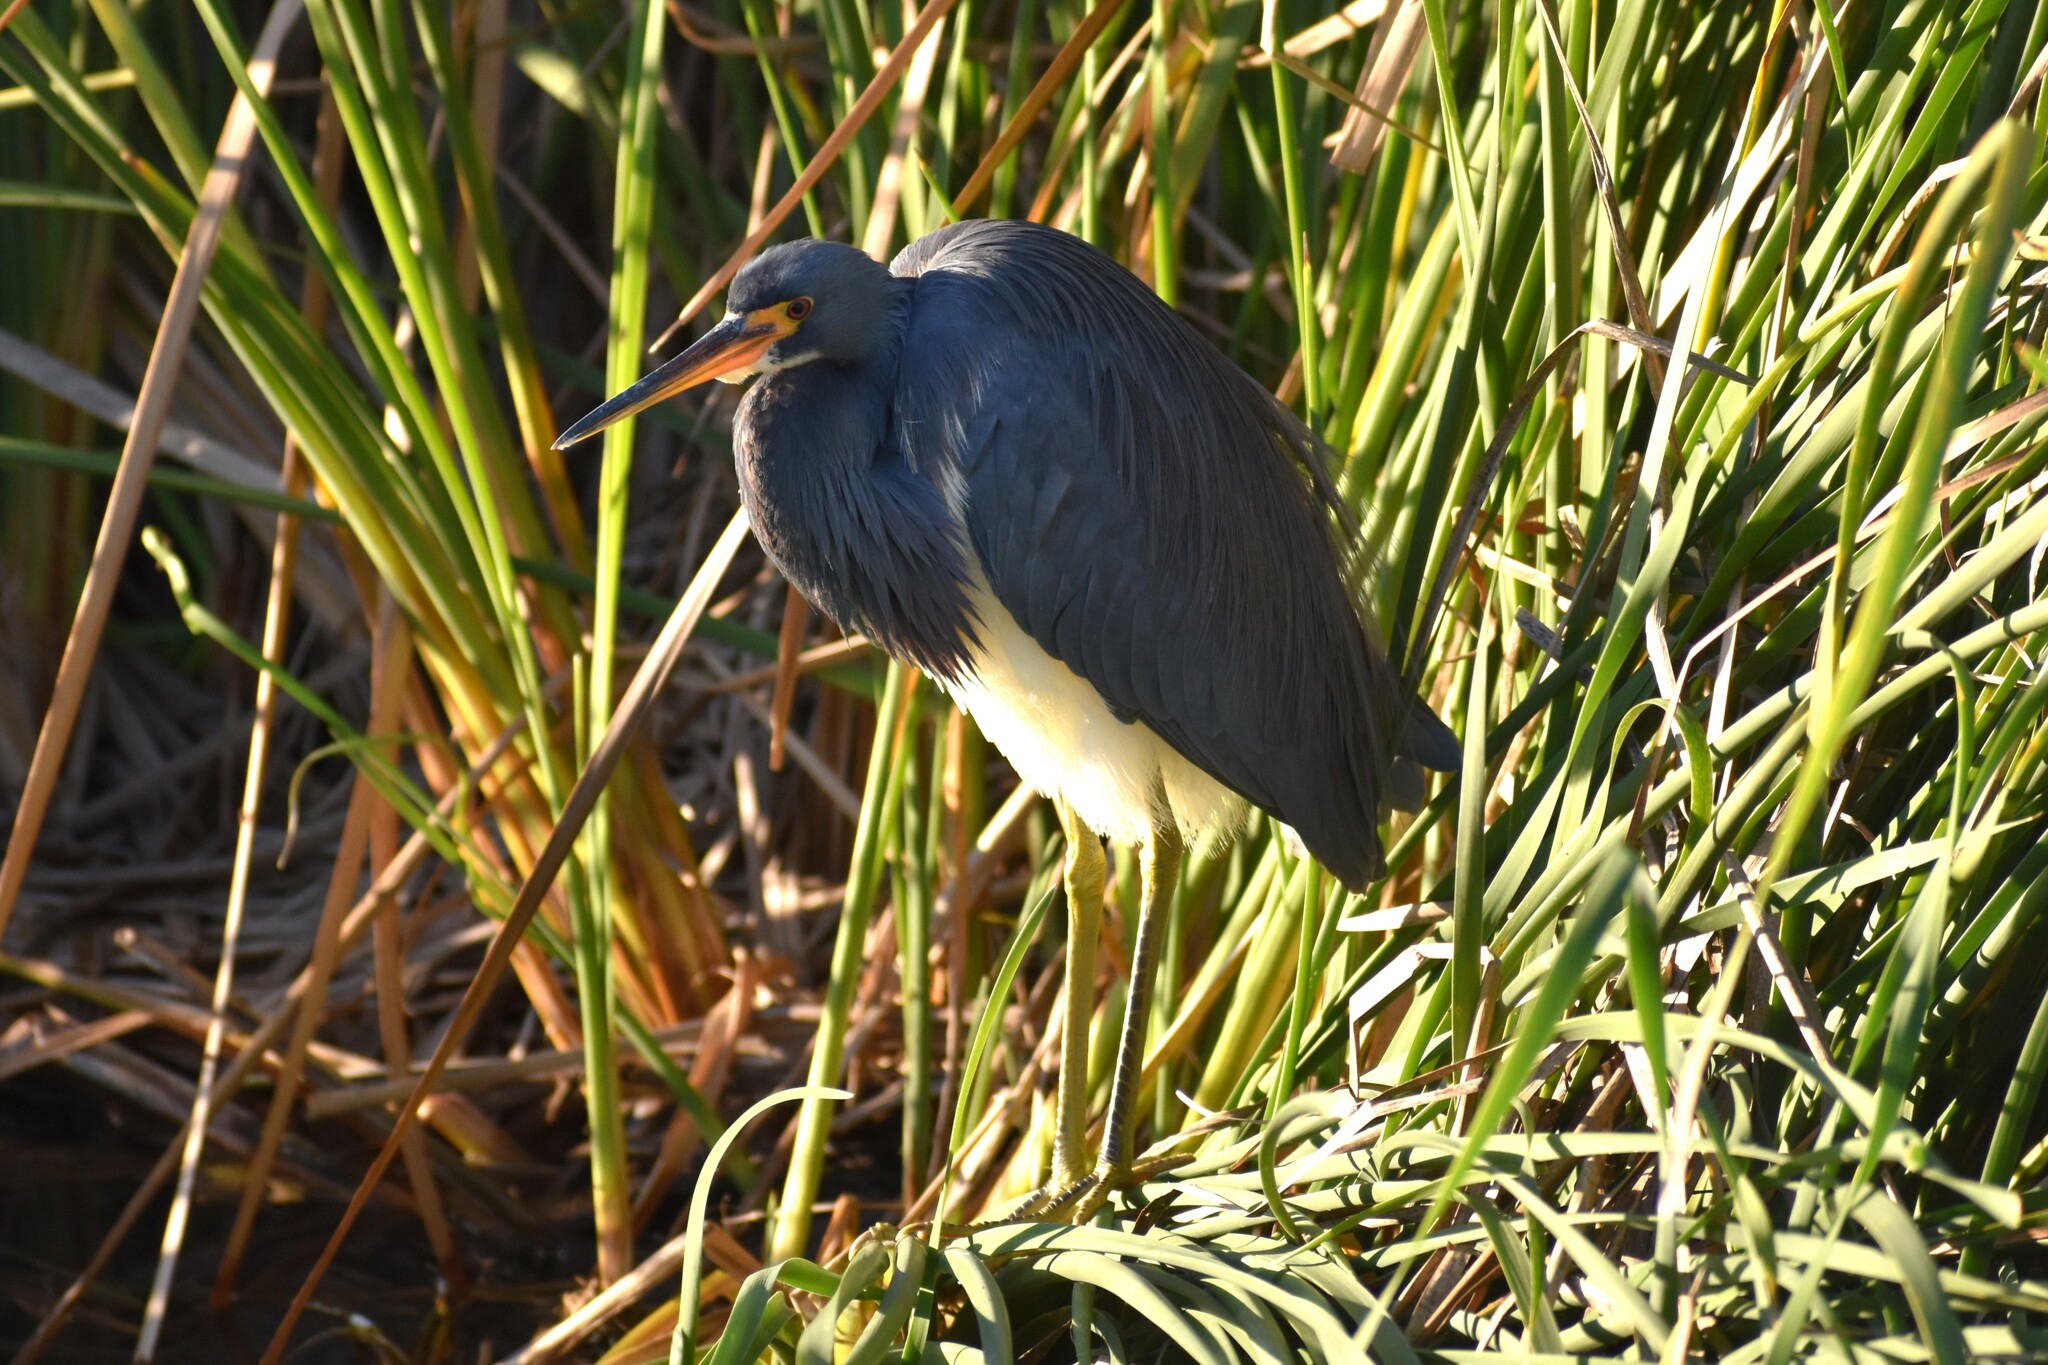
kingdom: Animalia
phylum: Chordata
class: Aves
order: Pelecaniformes
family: Ardeidae
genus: Egretta
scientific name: Egretta tricolor
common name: Tricolored heron
